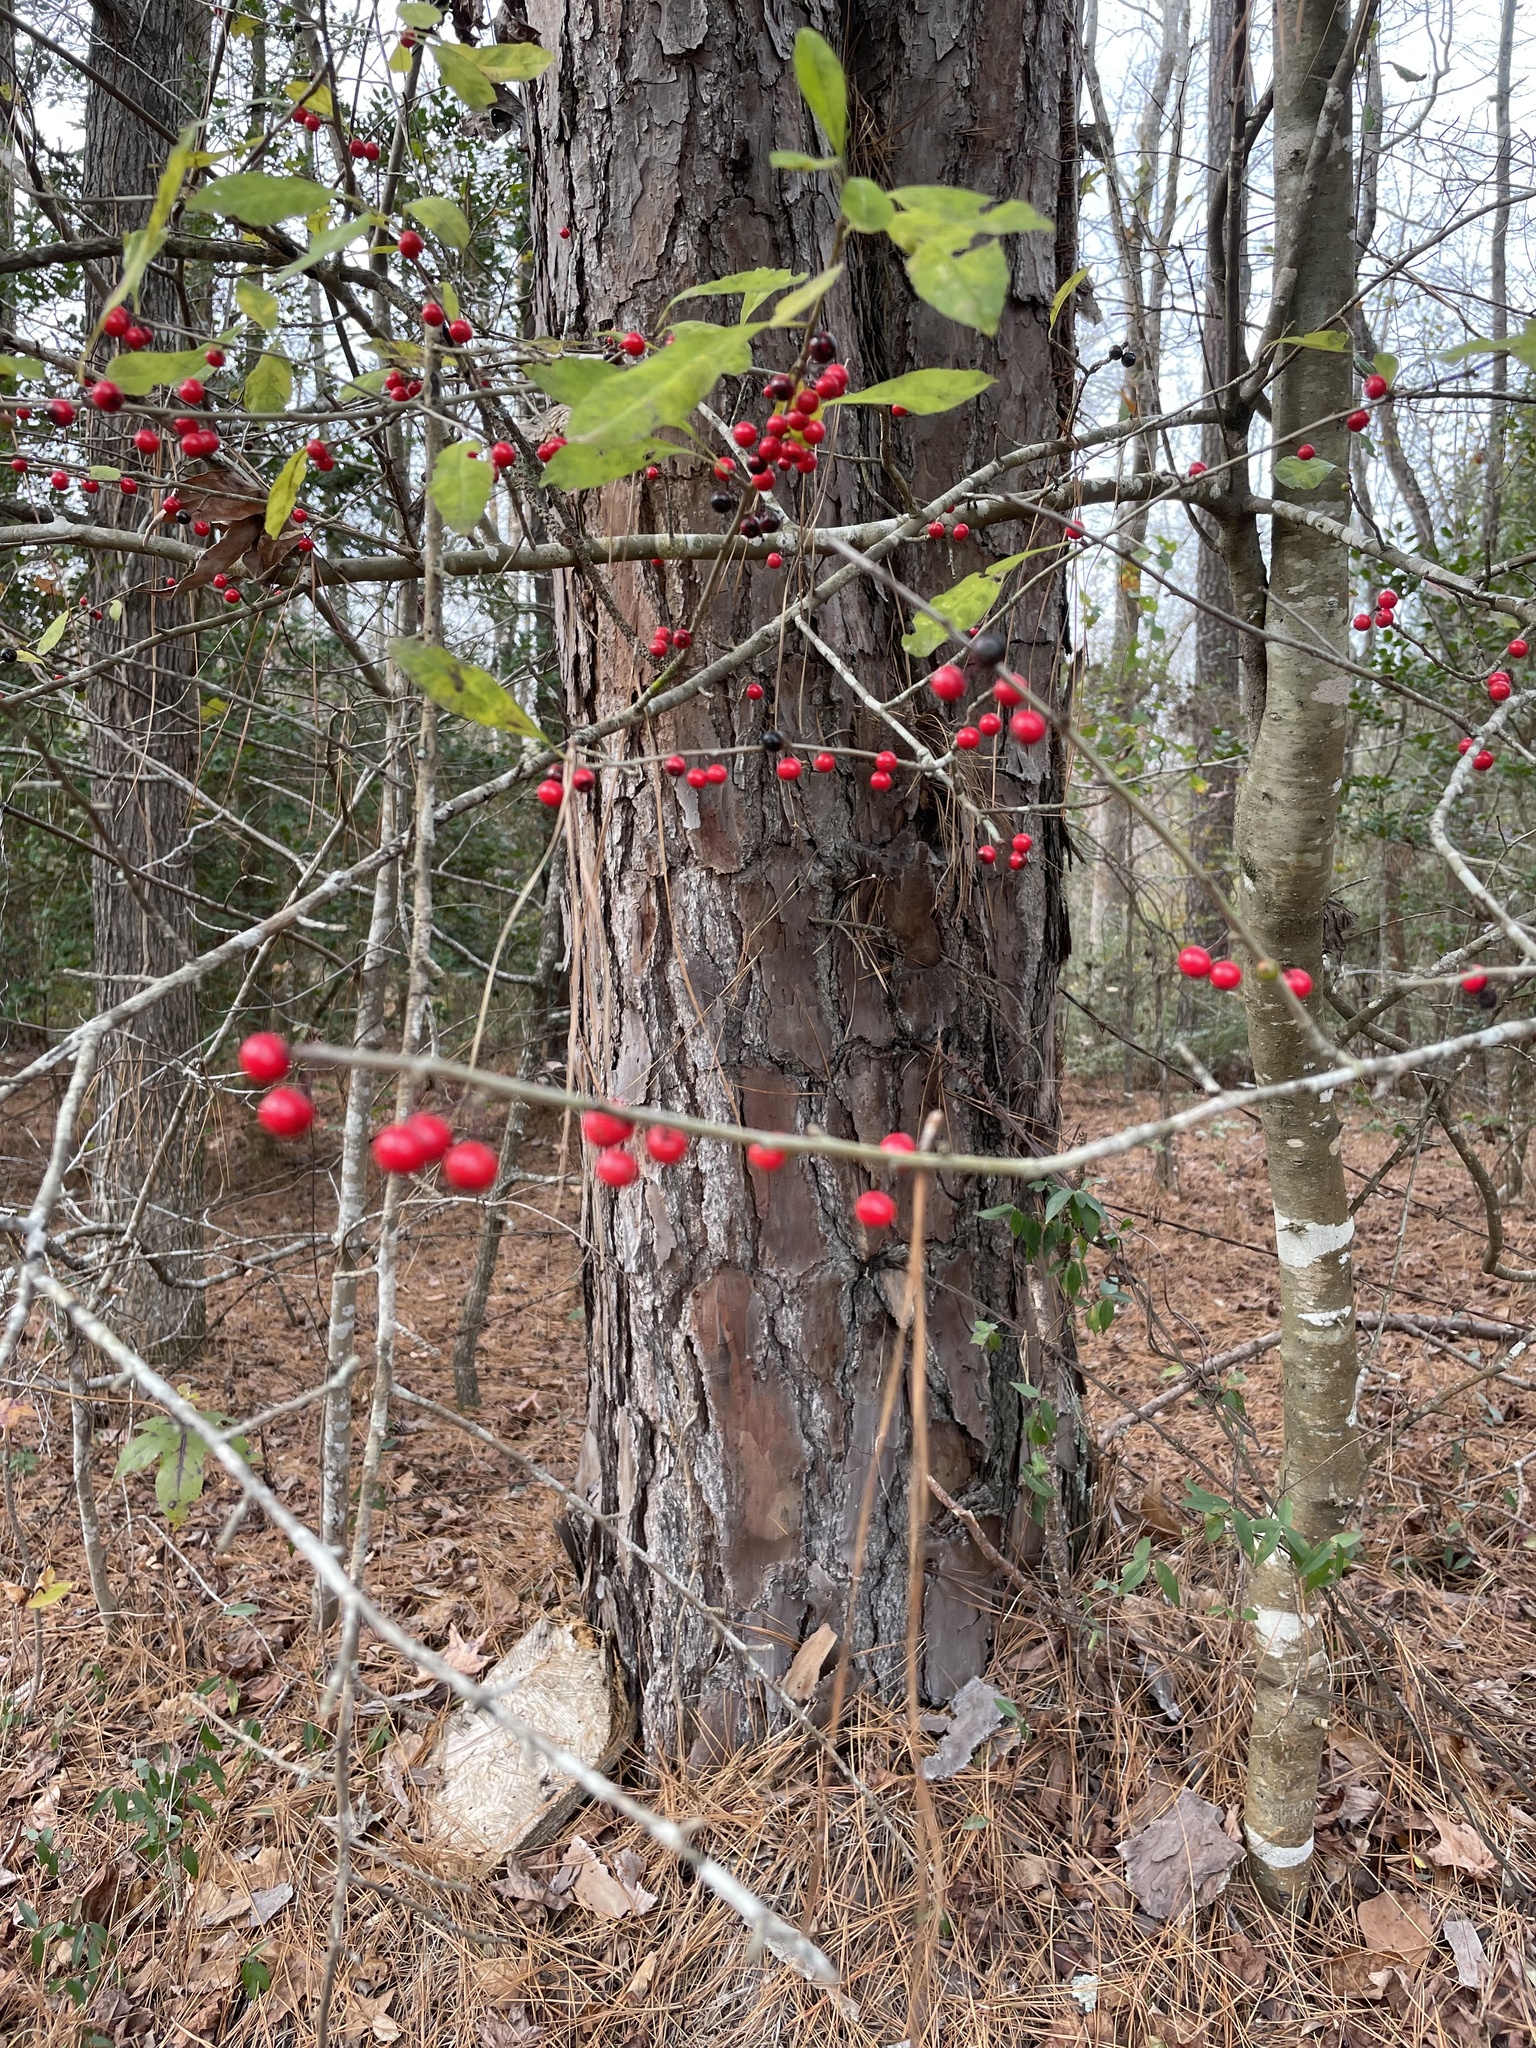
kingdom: Plantae
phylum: Tracheophyta
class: Magnoliopsida
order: Aquifoliales
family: Aquifoliaceae
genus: Ilex
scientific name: Ilex decidua
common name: Possum-haw
